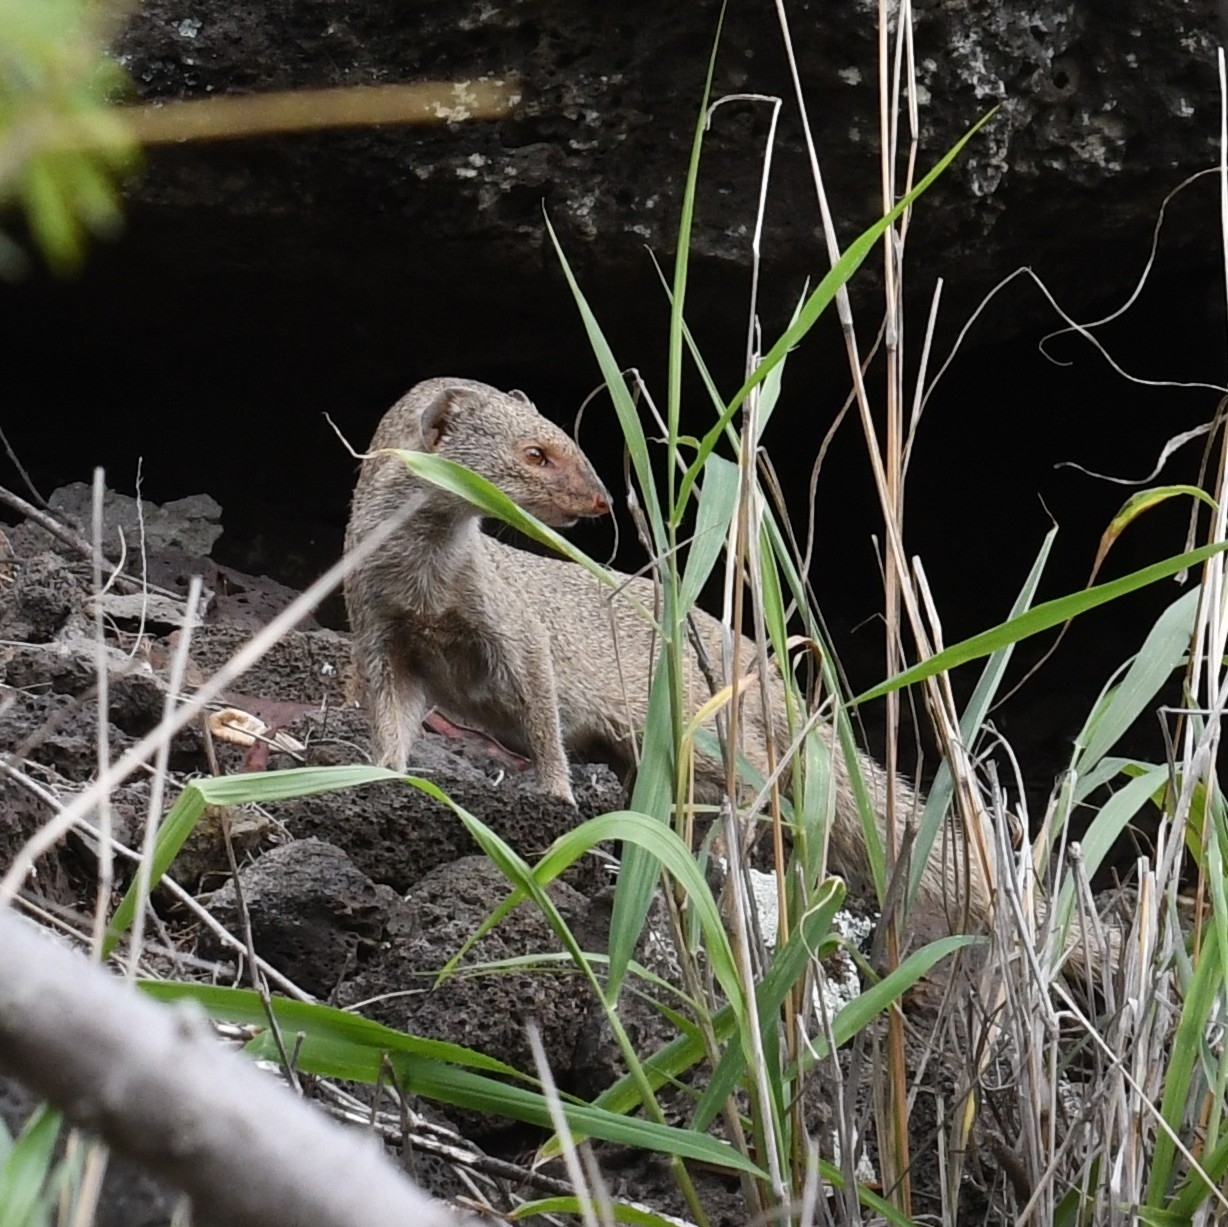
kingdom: Animalia
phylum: Chordata
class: Mammalia
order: Carnivora
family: Herpestidae
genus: Herpestes
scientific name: Herpestes javanicus
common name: Small asian mongoose
